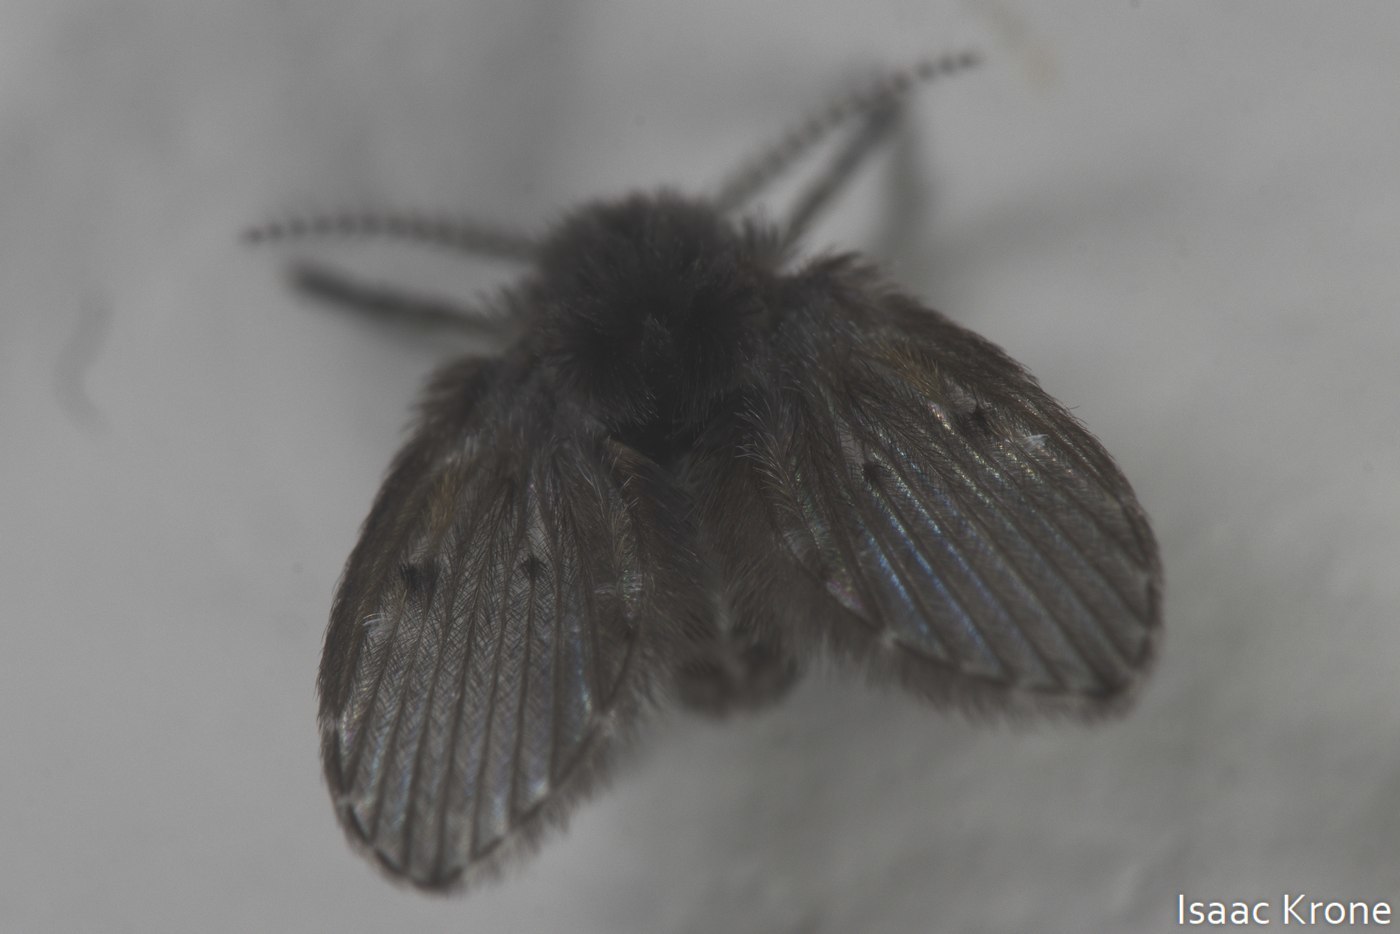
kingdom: Animalia
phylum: Arthropoda
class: Insecta
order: Diptera
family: Psychodidae
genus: Clogmia
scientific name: Clogmia albipunctatus
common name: White-spotted moth fly
